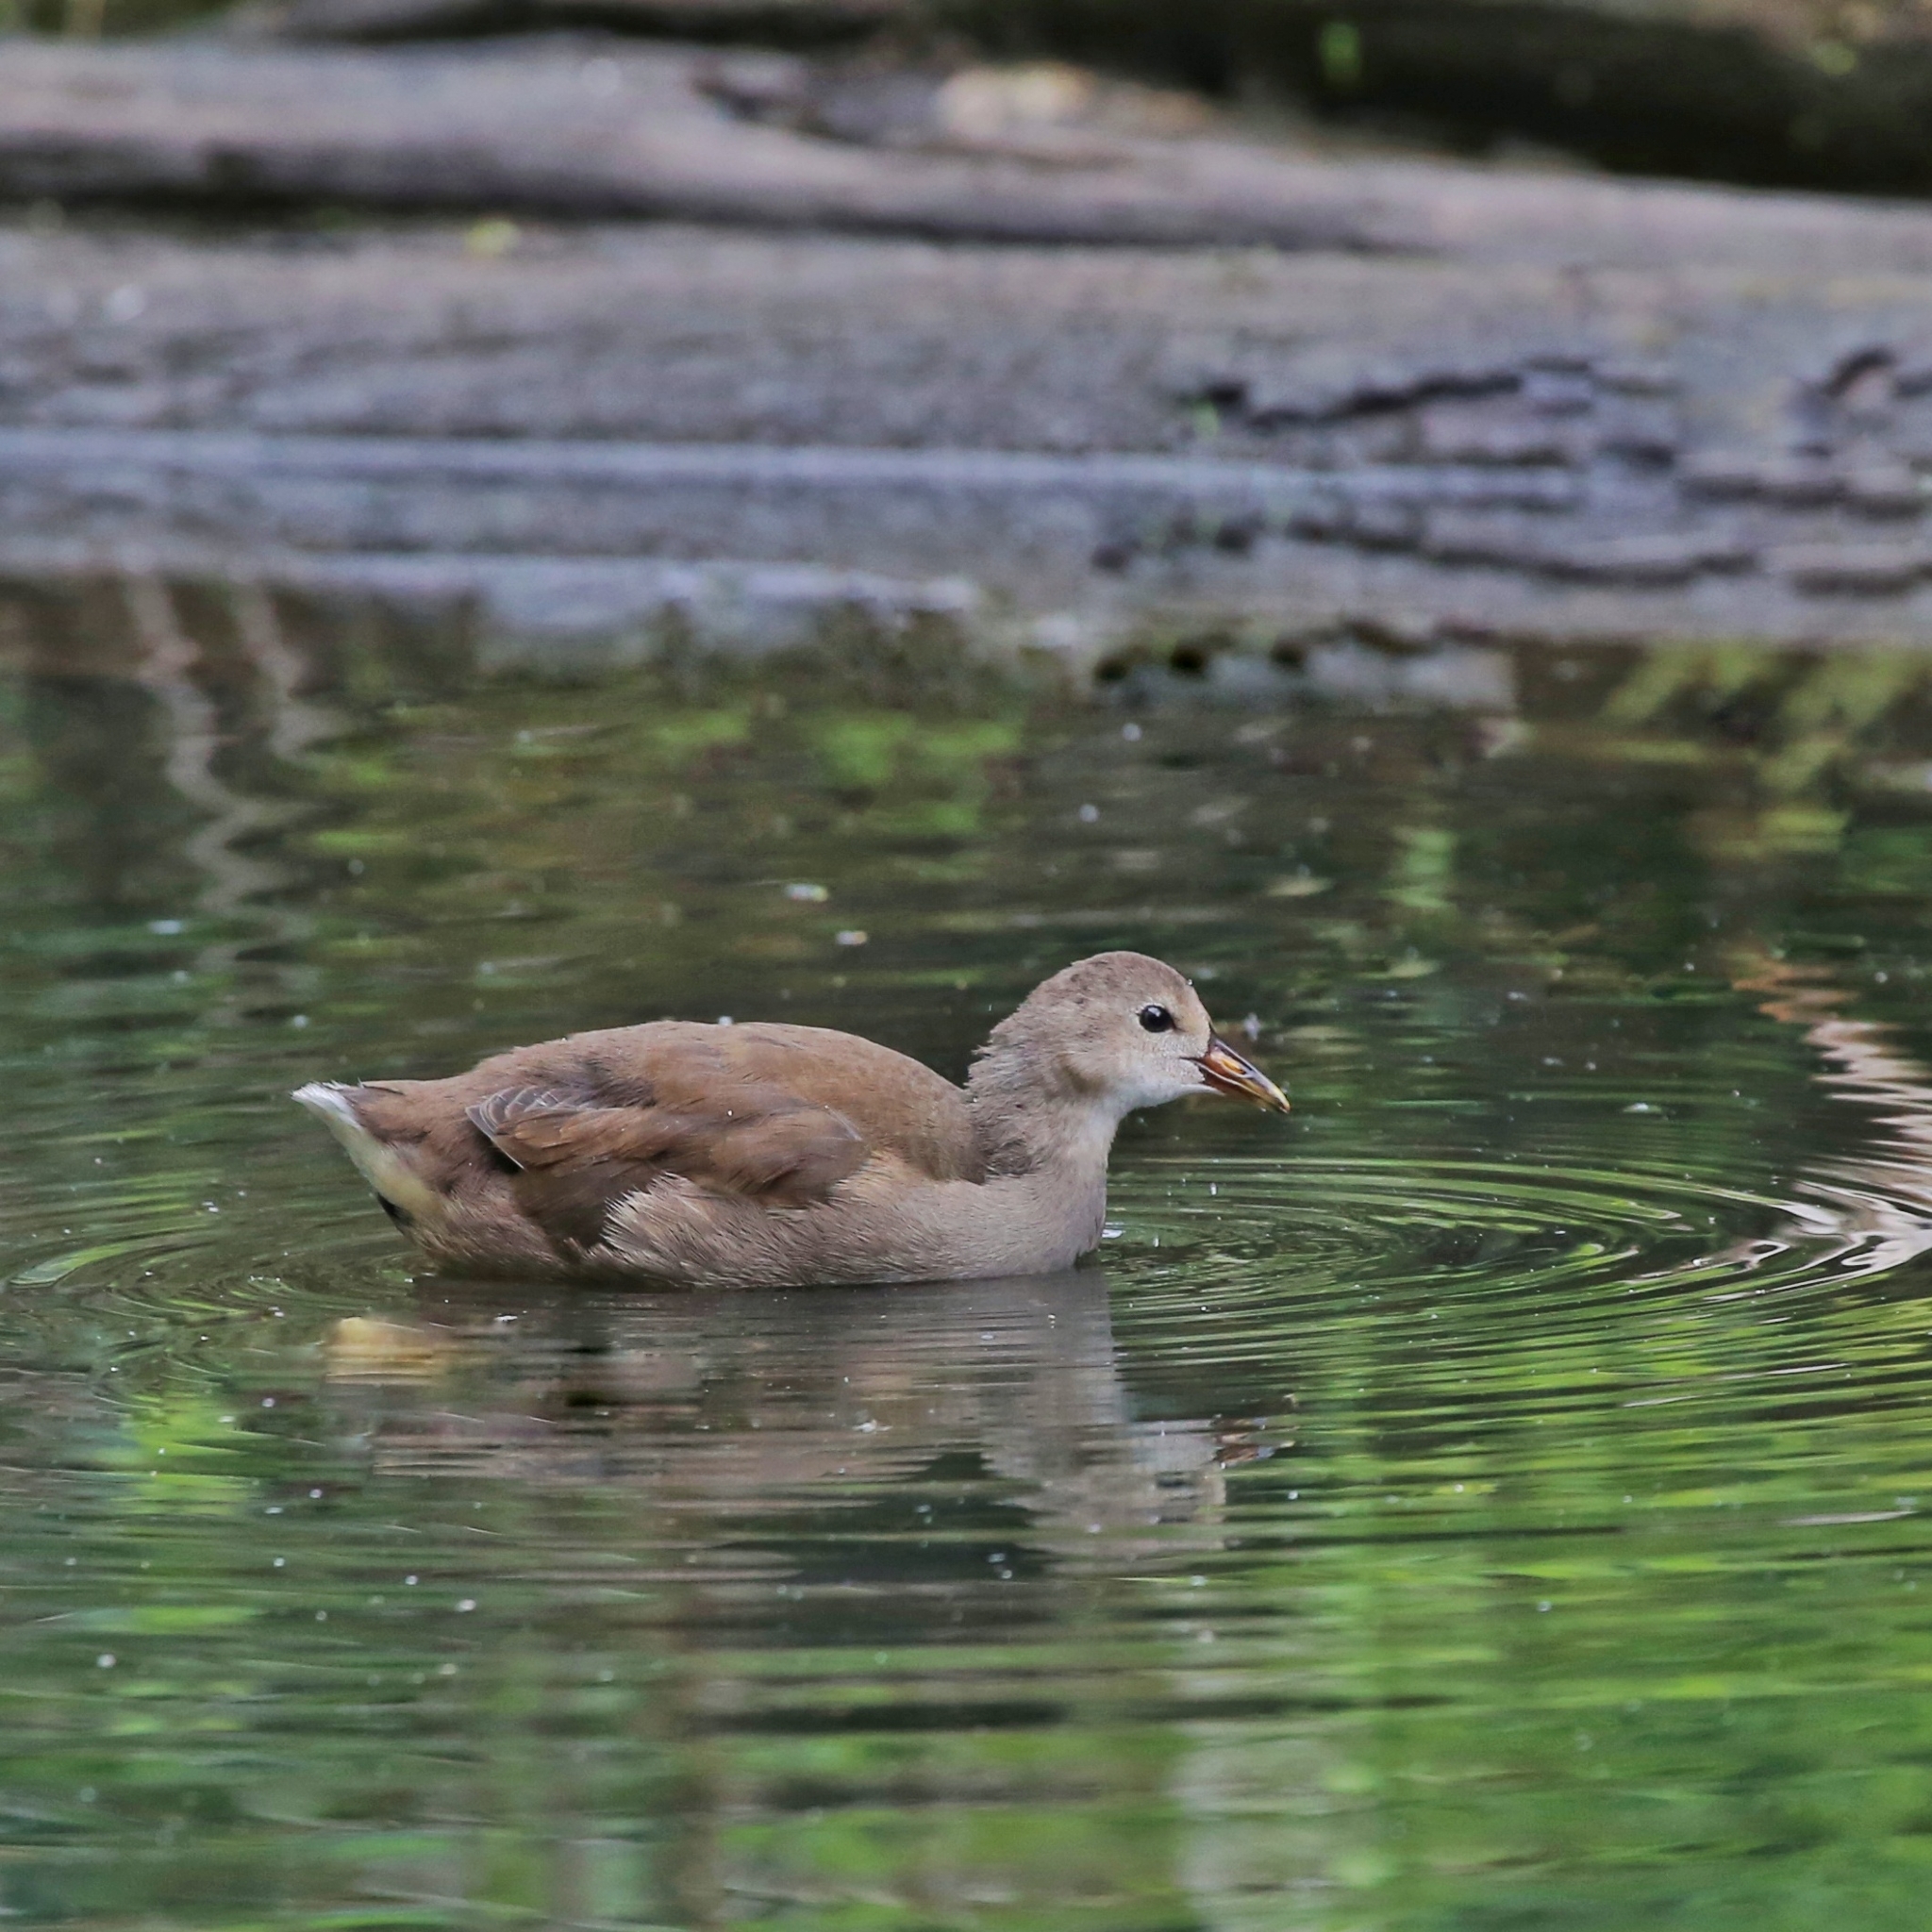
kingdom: Animalia
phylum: Chordata
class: Aves
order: Gruiformes
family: Rallidae
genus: Gallinula
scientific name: Gallinula chloropus
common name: Common moorhen
